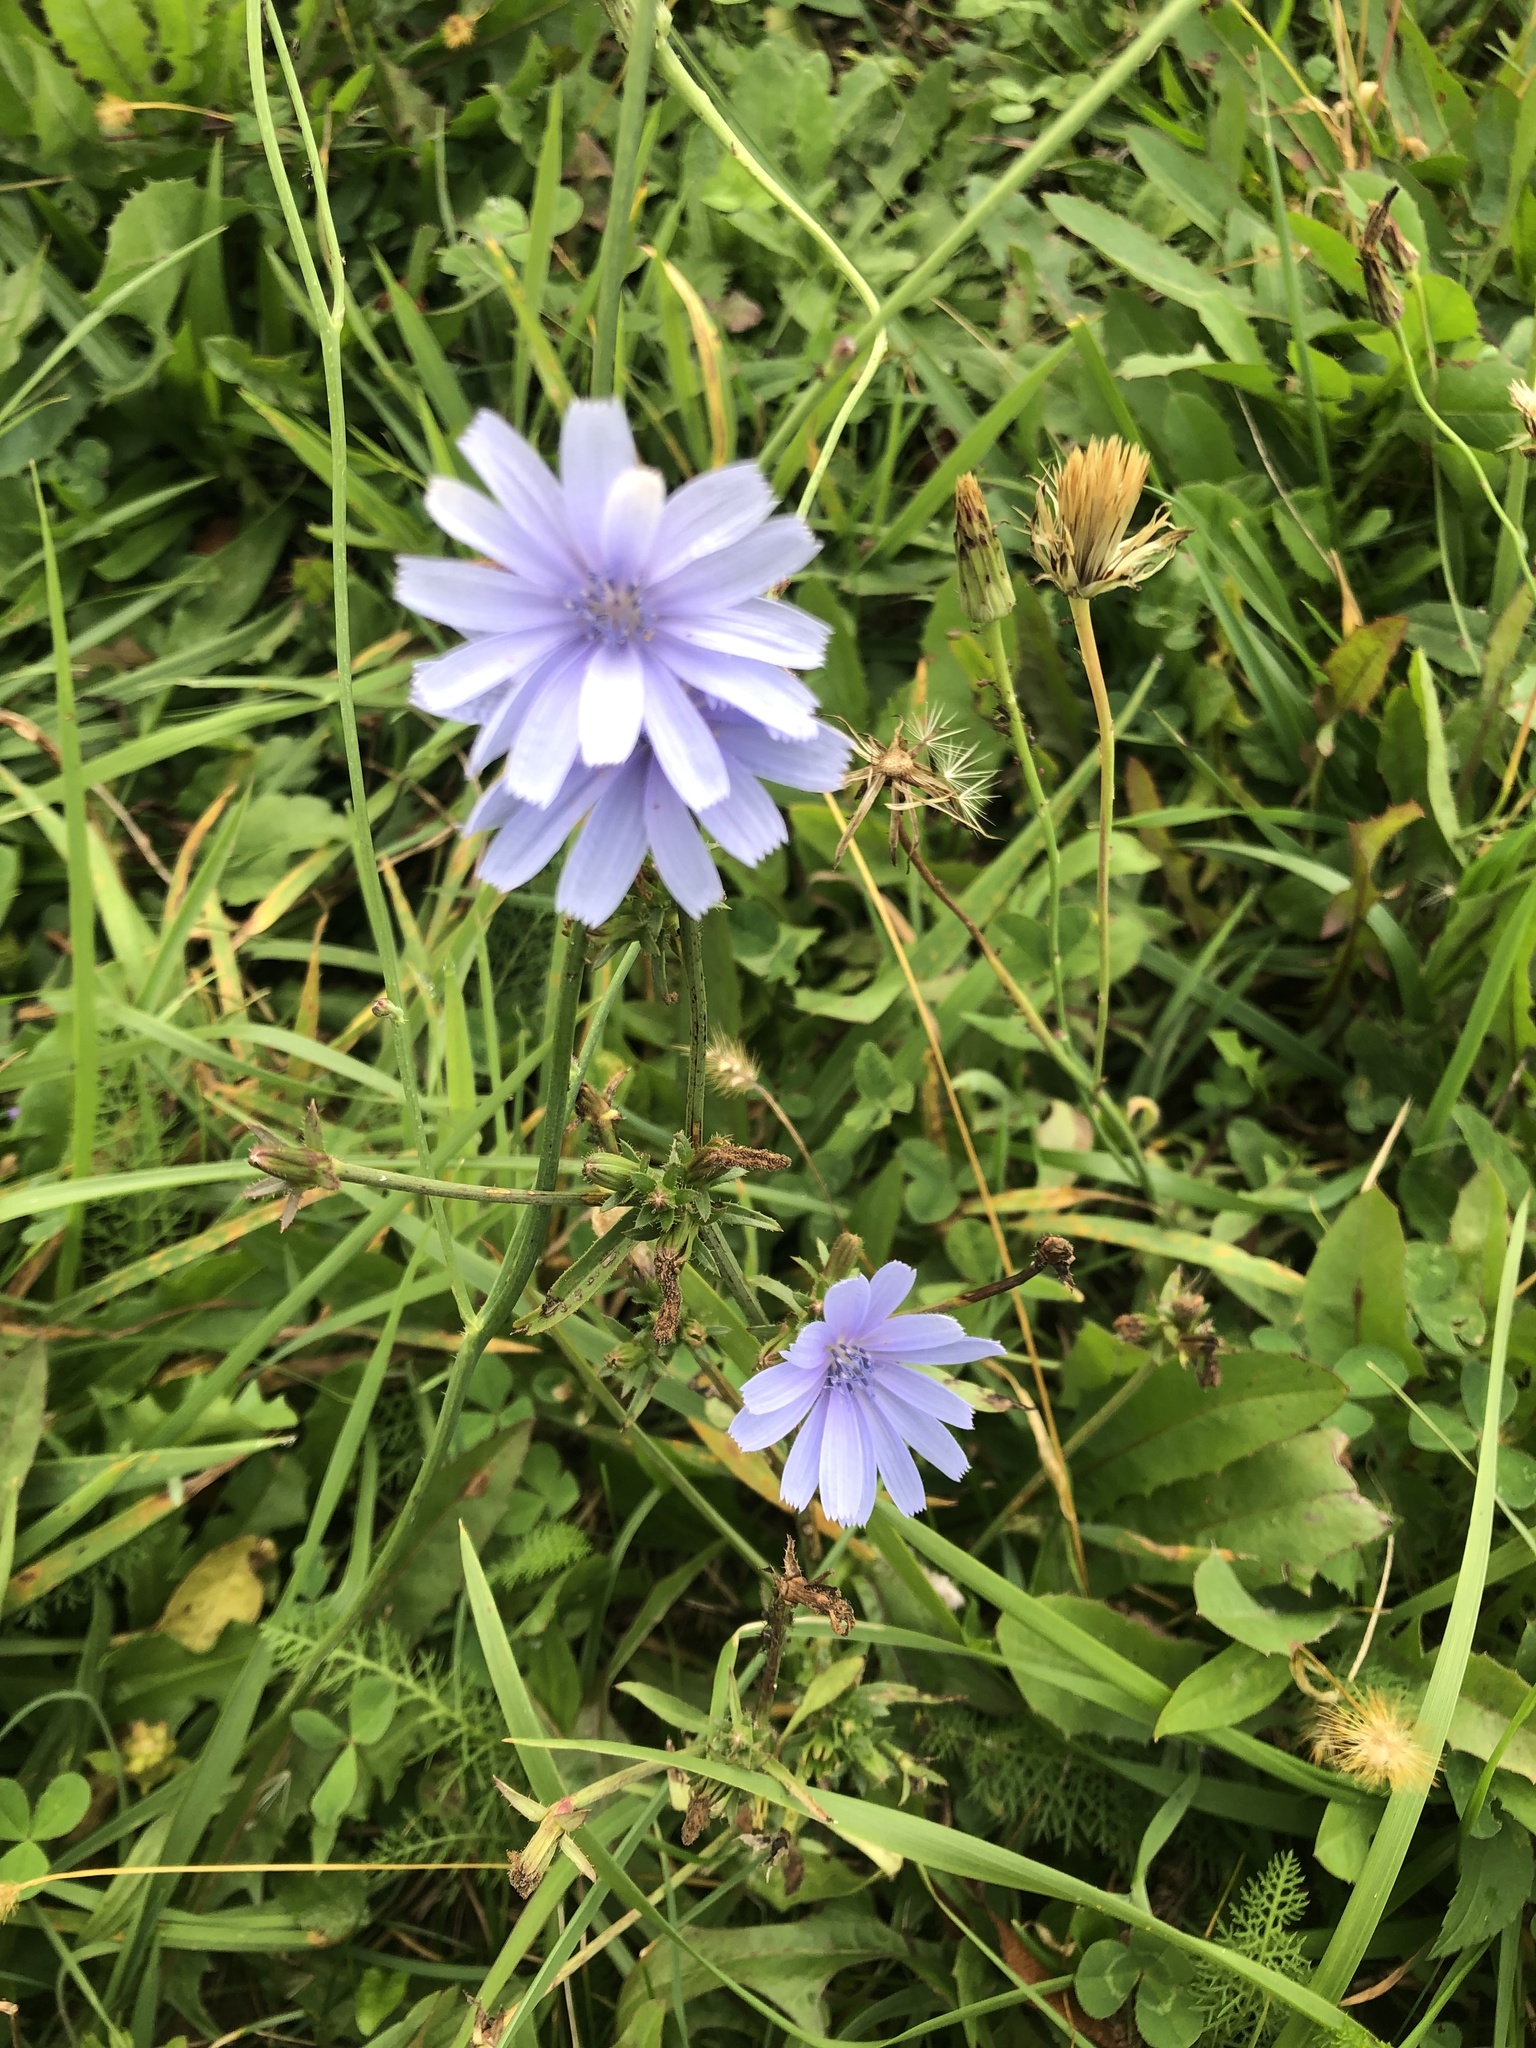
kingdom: Plantae
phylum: Tracheophyta
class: Magnoliopsida
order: Asterales
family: Asteraceae
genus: Cichorium
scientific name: Cichorium intybus
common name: Chicory
